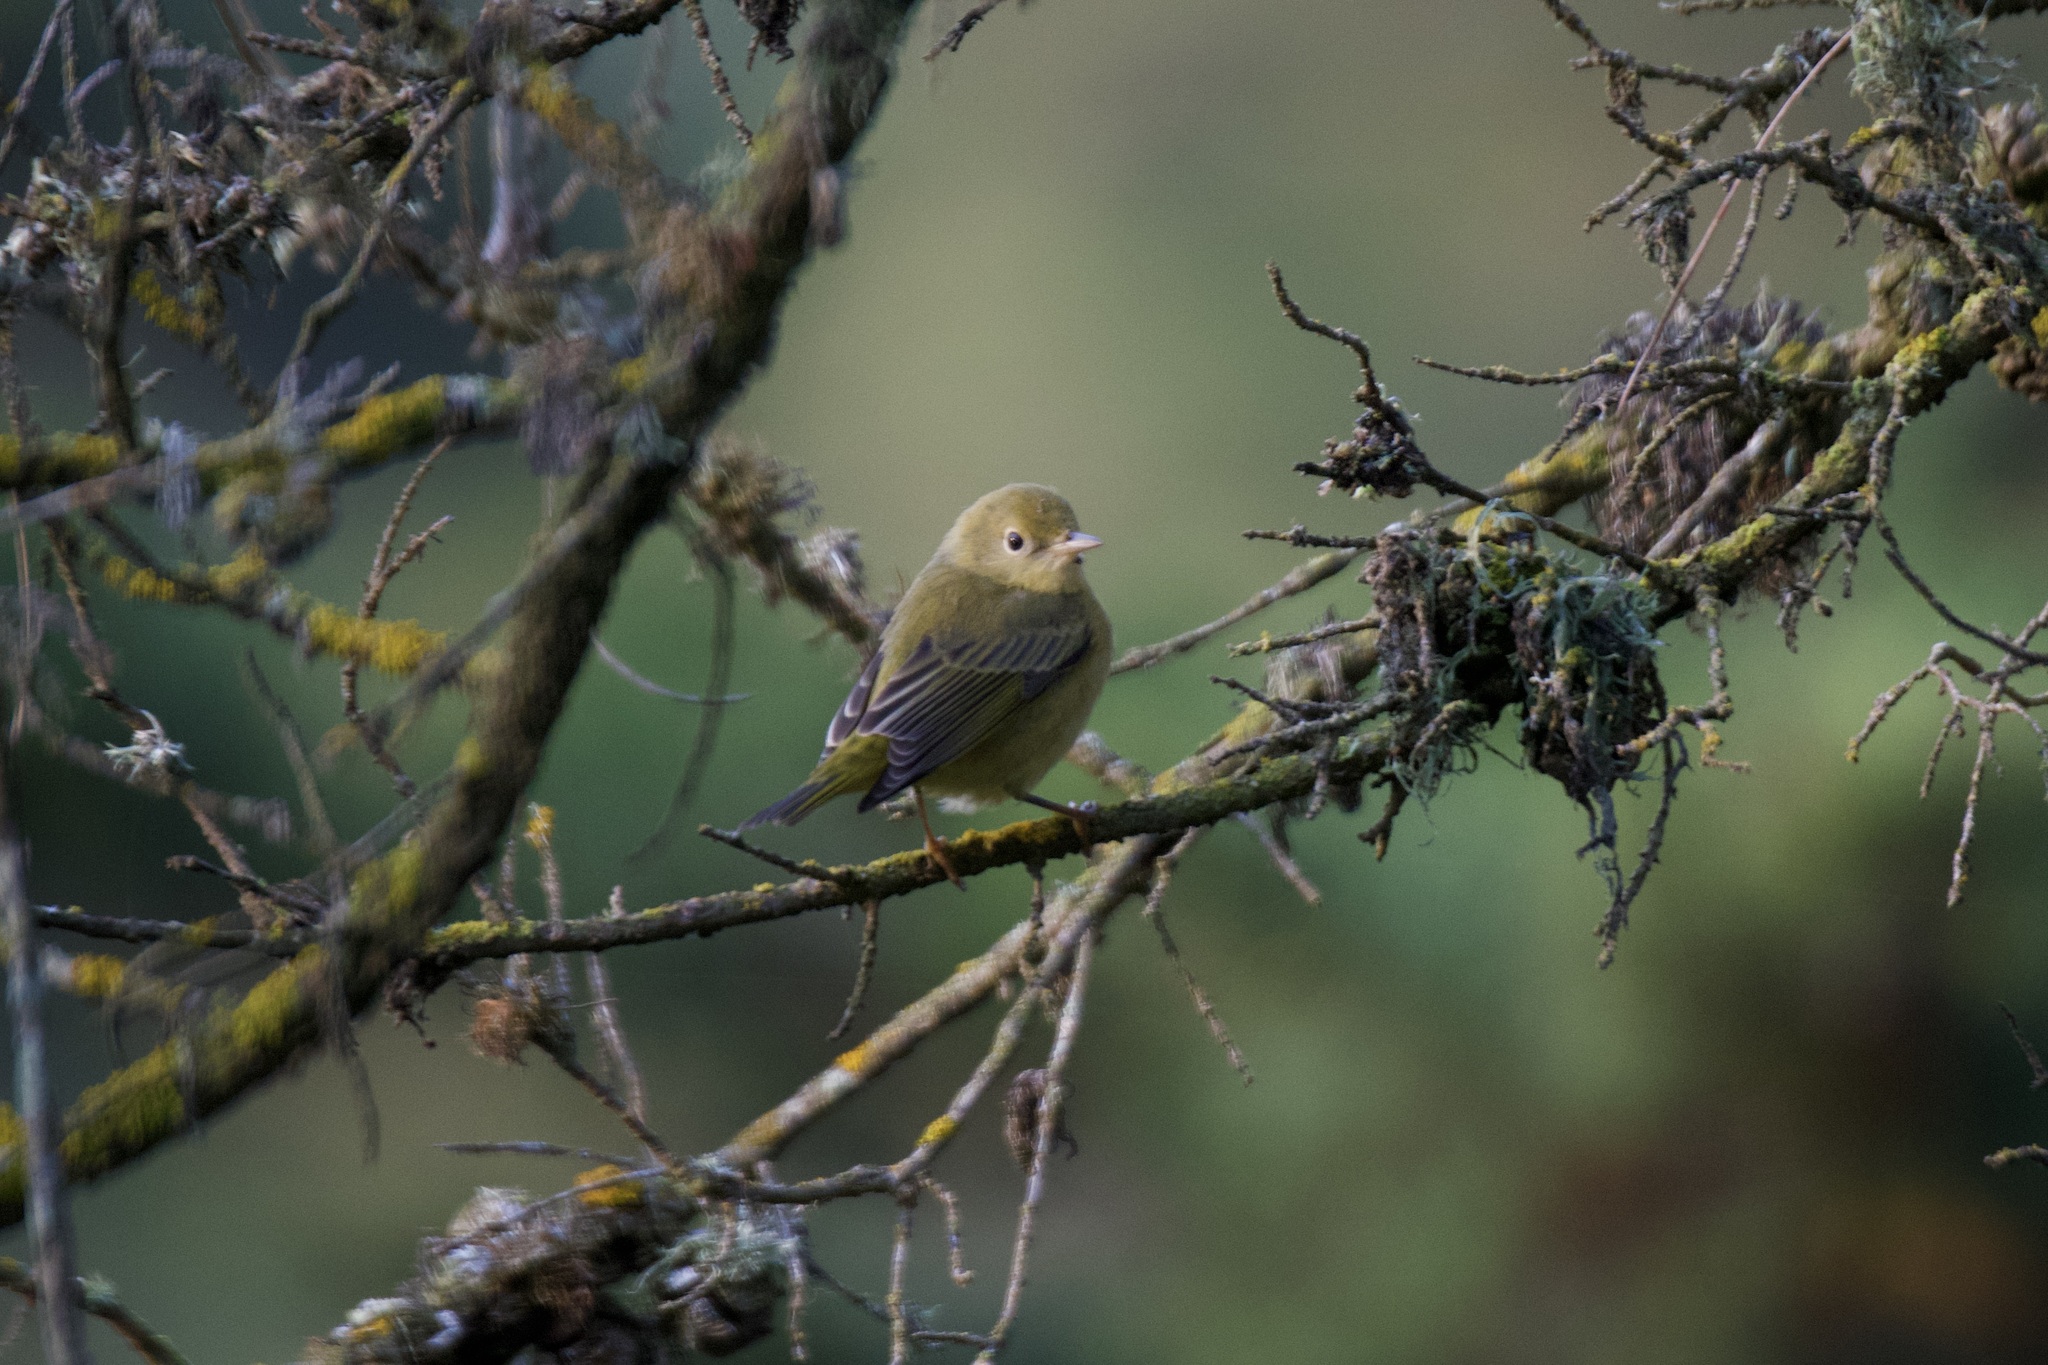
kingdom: Animalia
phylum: Chordata
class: Aves
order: Passeriformes
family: Parulidae
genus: Setophaga
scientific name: Setophaga petechia
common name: Yellow warbler
